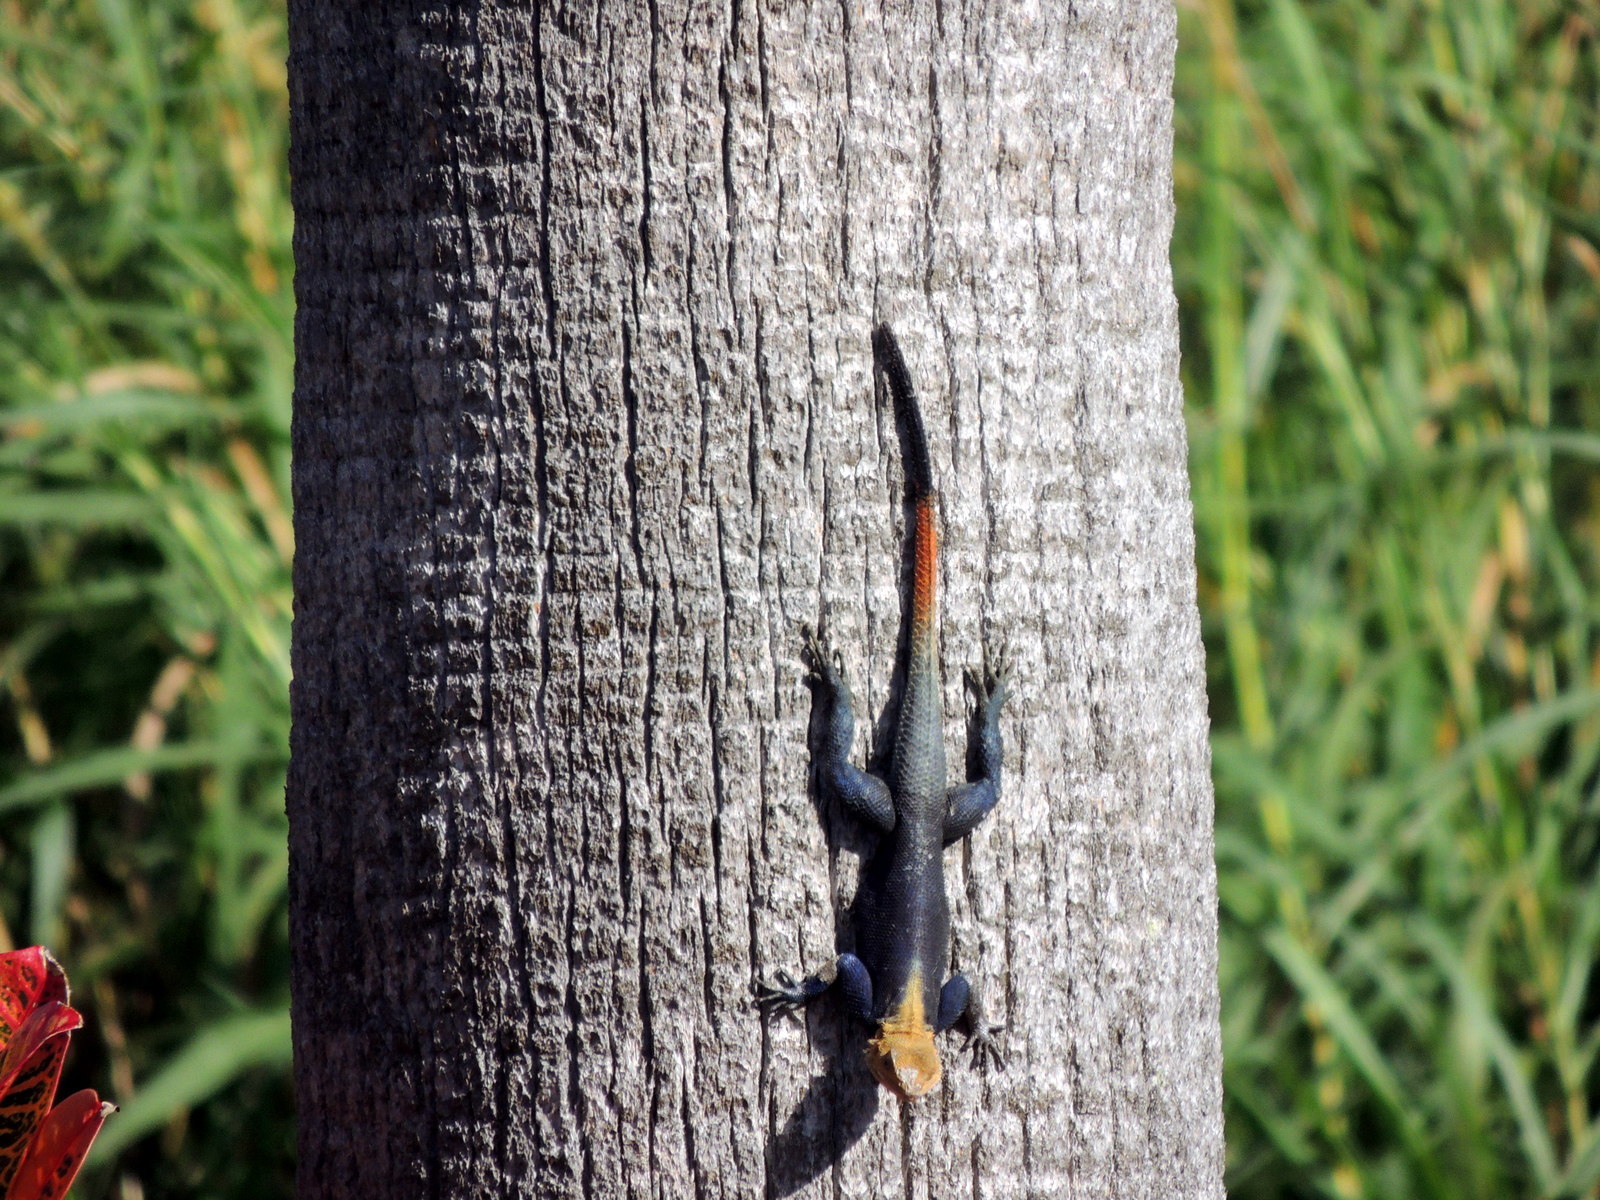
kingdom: Animalia
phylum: Chordata
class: Squamata
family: Agamidae
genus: Agama
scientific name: Agama picticauda
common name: Red-headed agama
